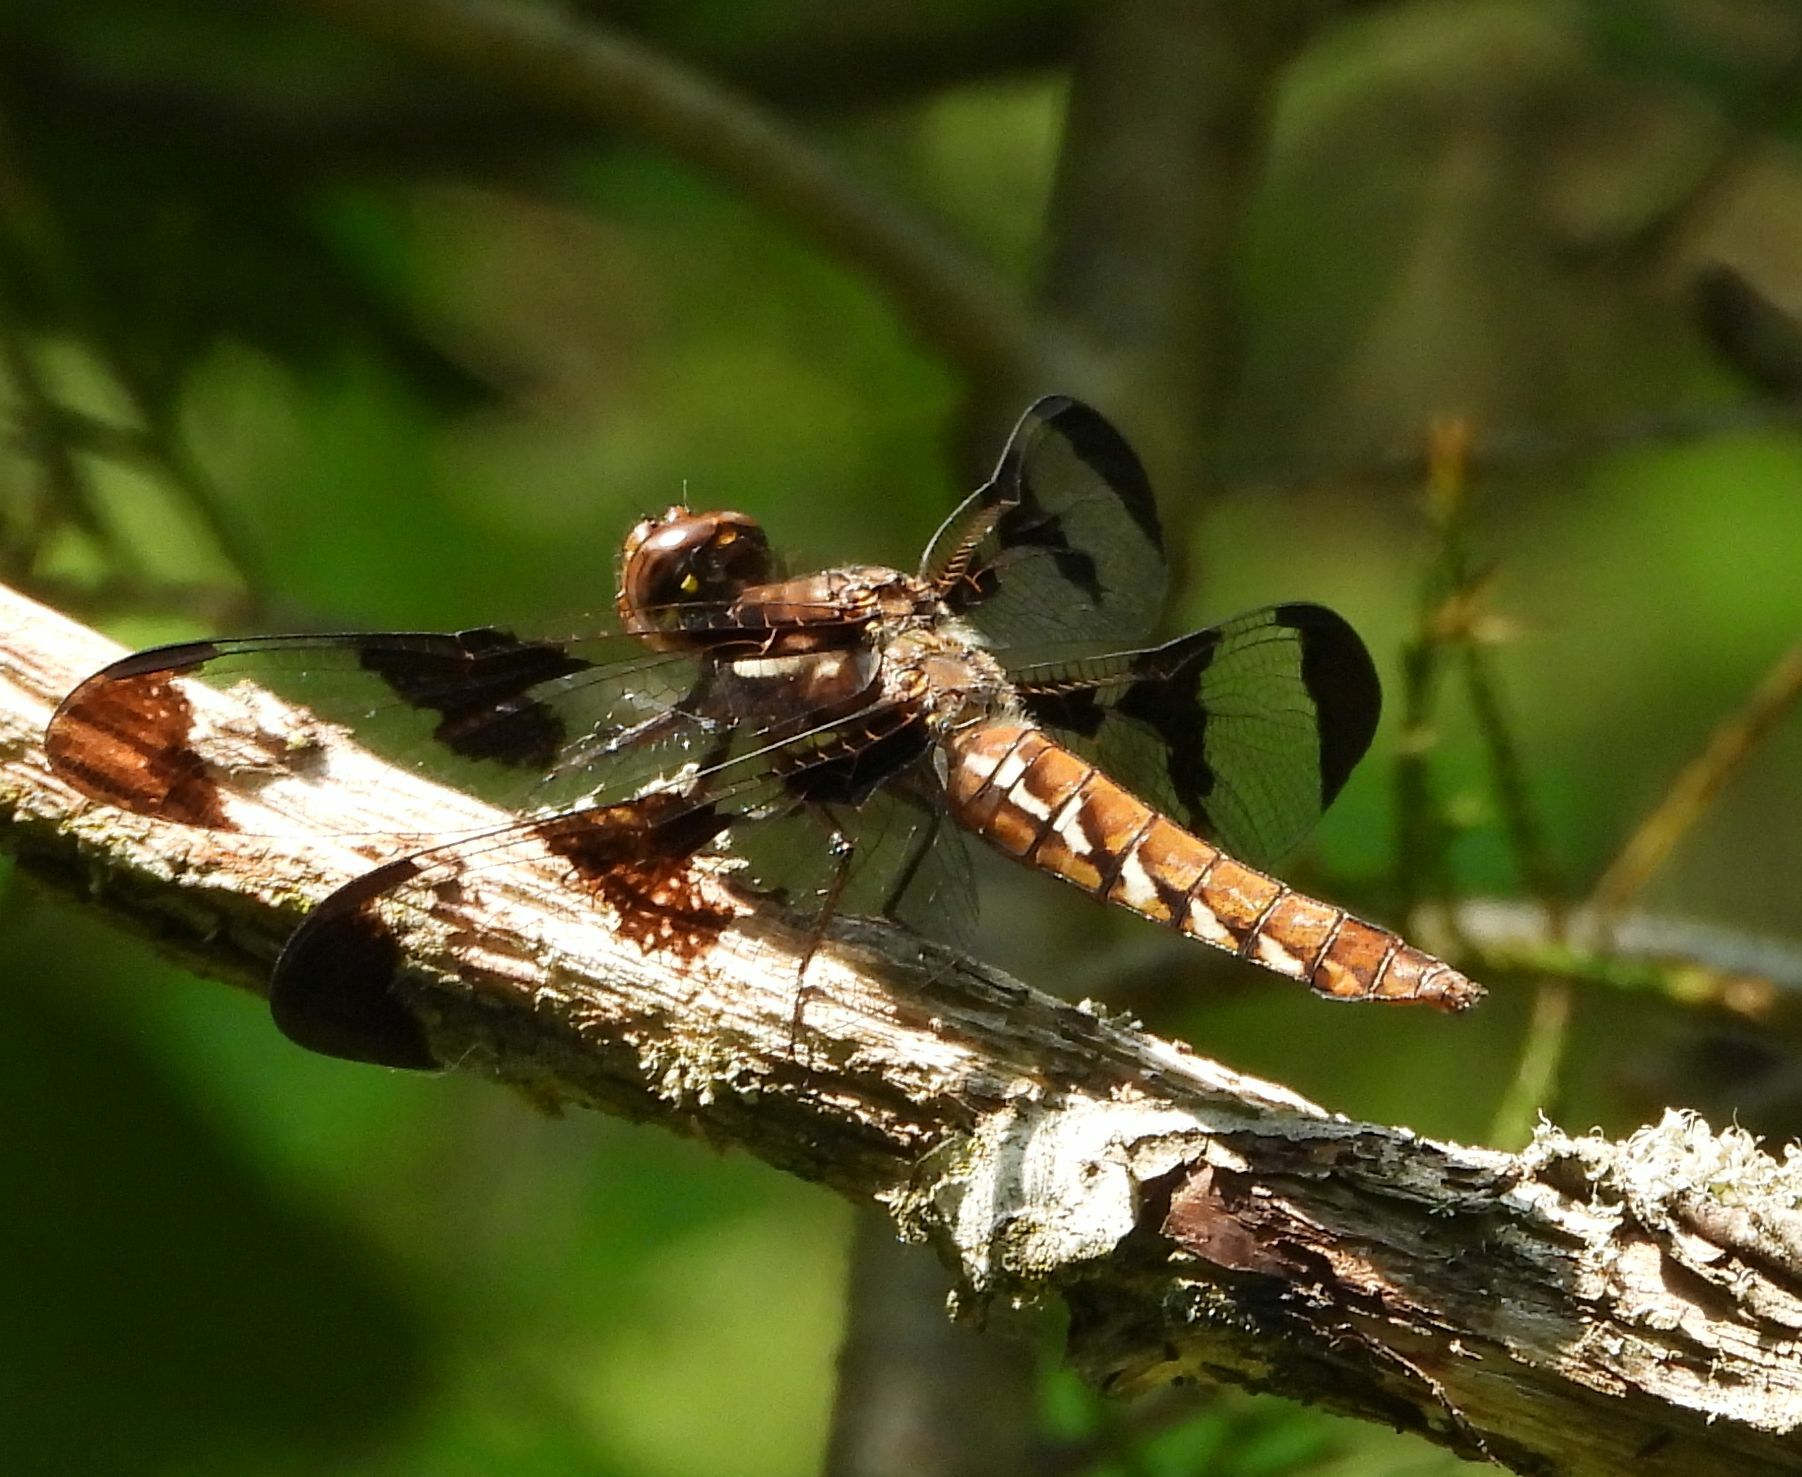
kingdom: Animalia
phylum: Arthropoda
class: Insecta
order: Odonata
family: Libellulidae
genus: Plathemis
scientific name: Plathemis lydia
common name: Common whitetail
